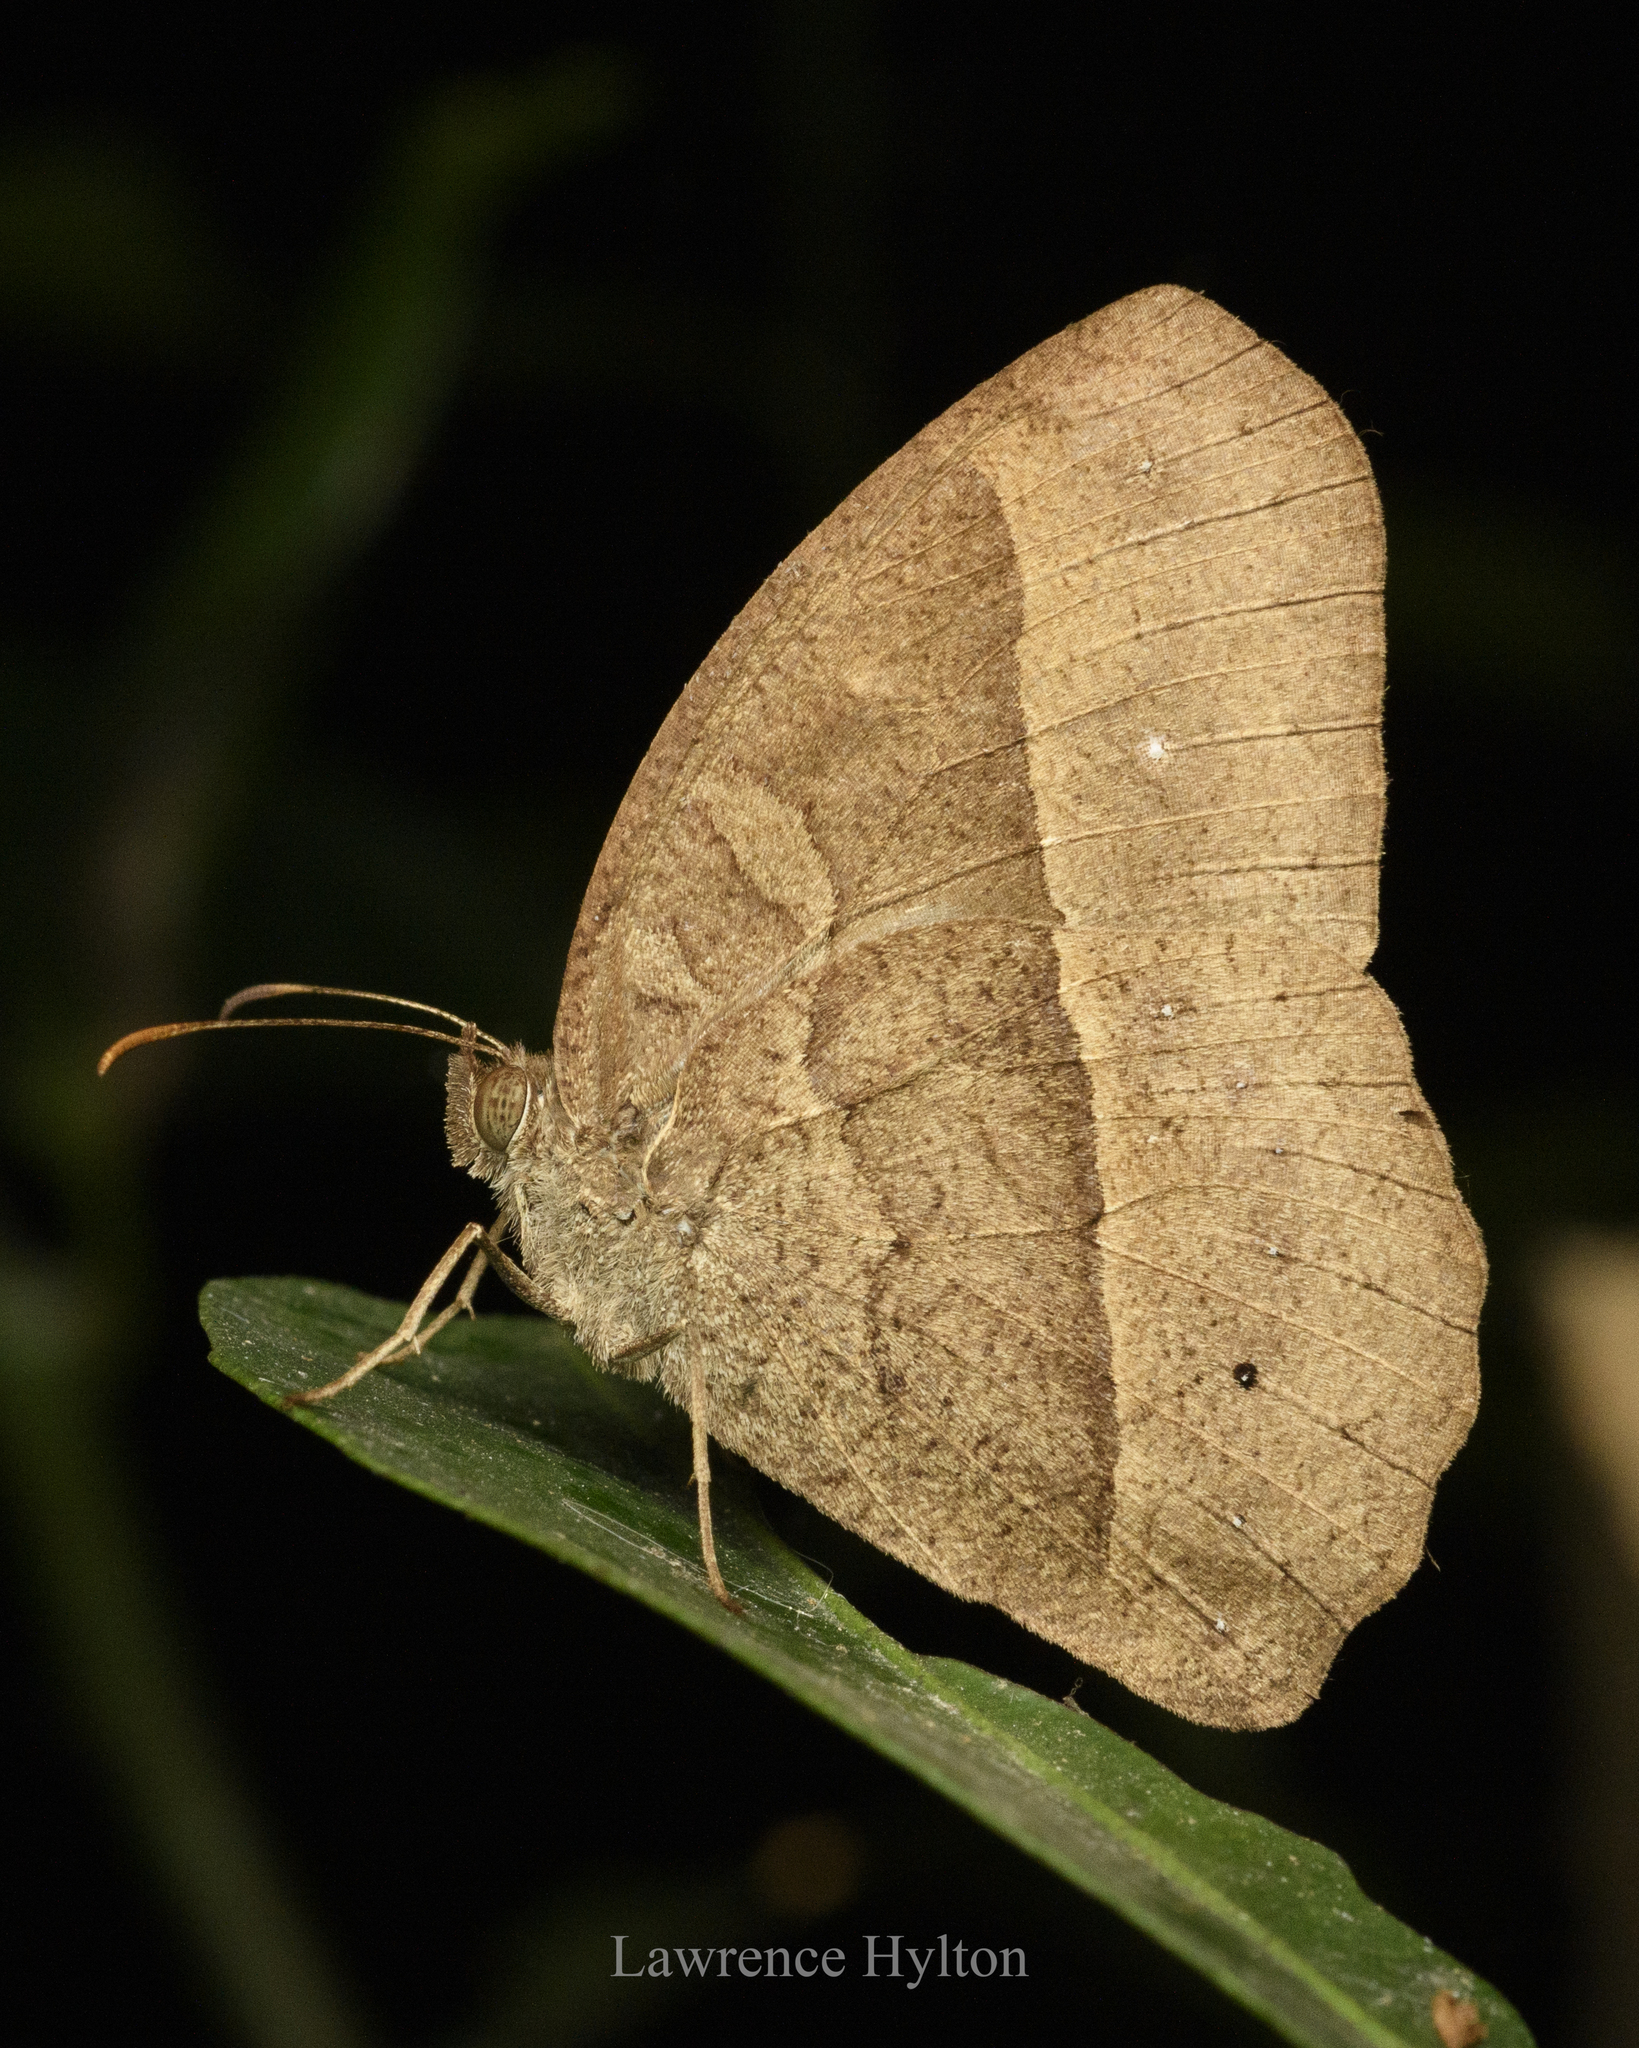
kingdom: Animalia
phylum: Arthropoda
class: Insecta
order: Lepidoptera
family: Nymphalidae
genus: Mycalesis
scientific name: Mycalesis horsfieldii
